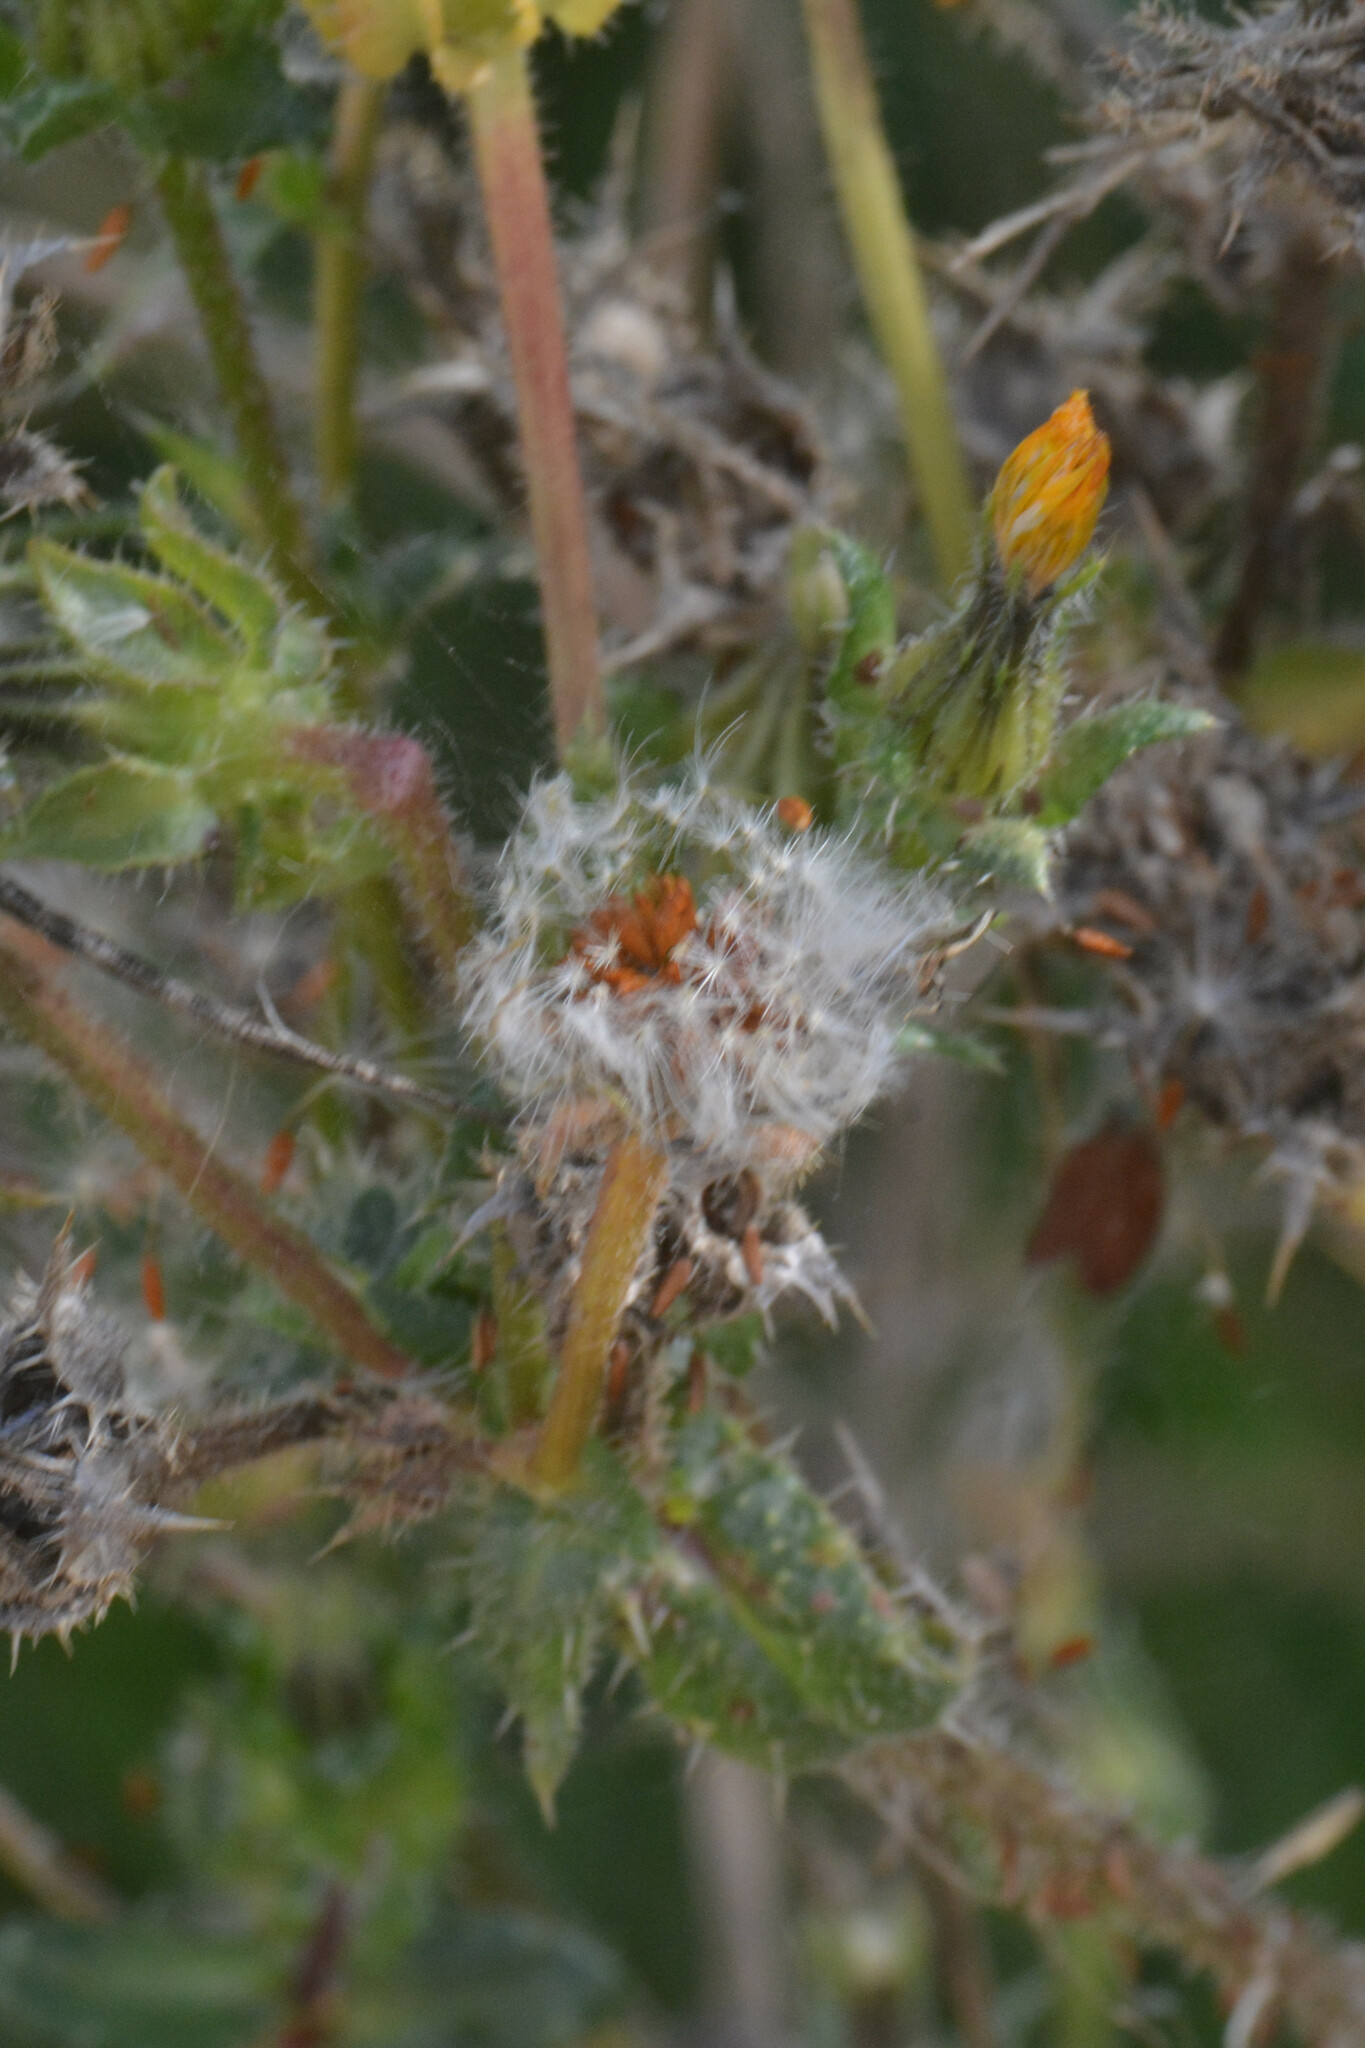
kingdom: Plantae
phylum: Tracheophyta
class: Magnoliopsida
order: Asterales
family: Asteraceae
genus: Helminthotheca
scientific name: Helminthotheca echioides
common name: Ox-tongue
